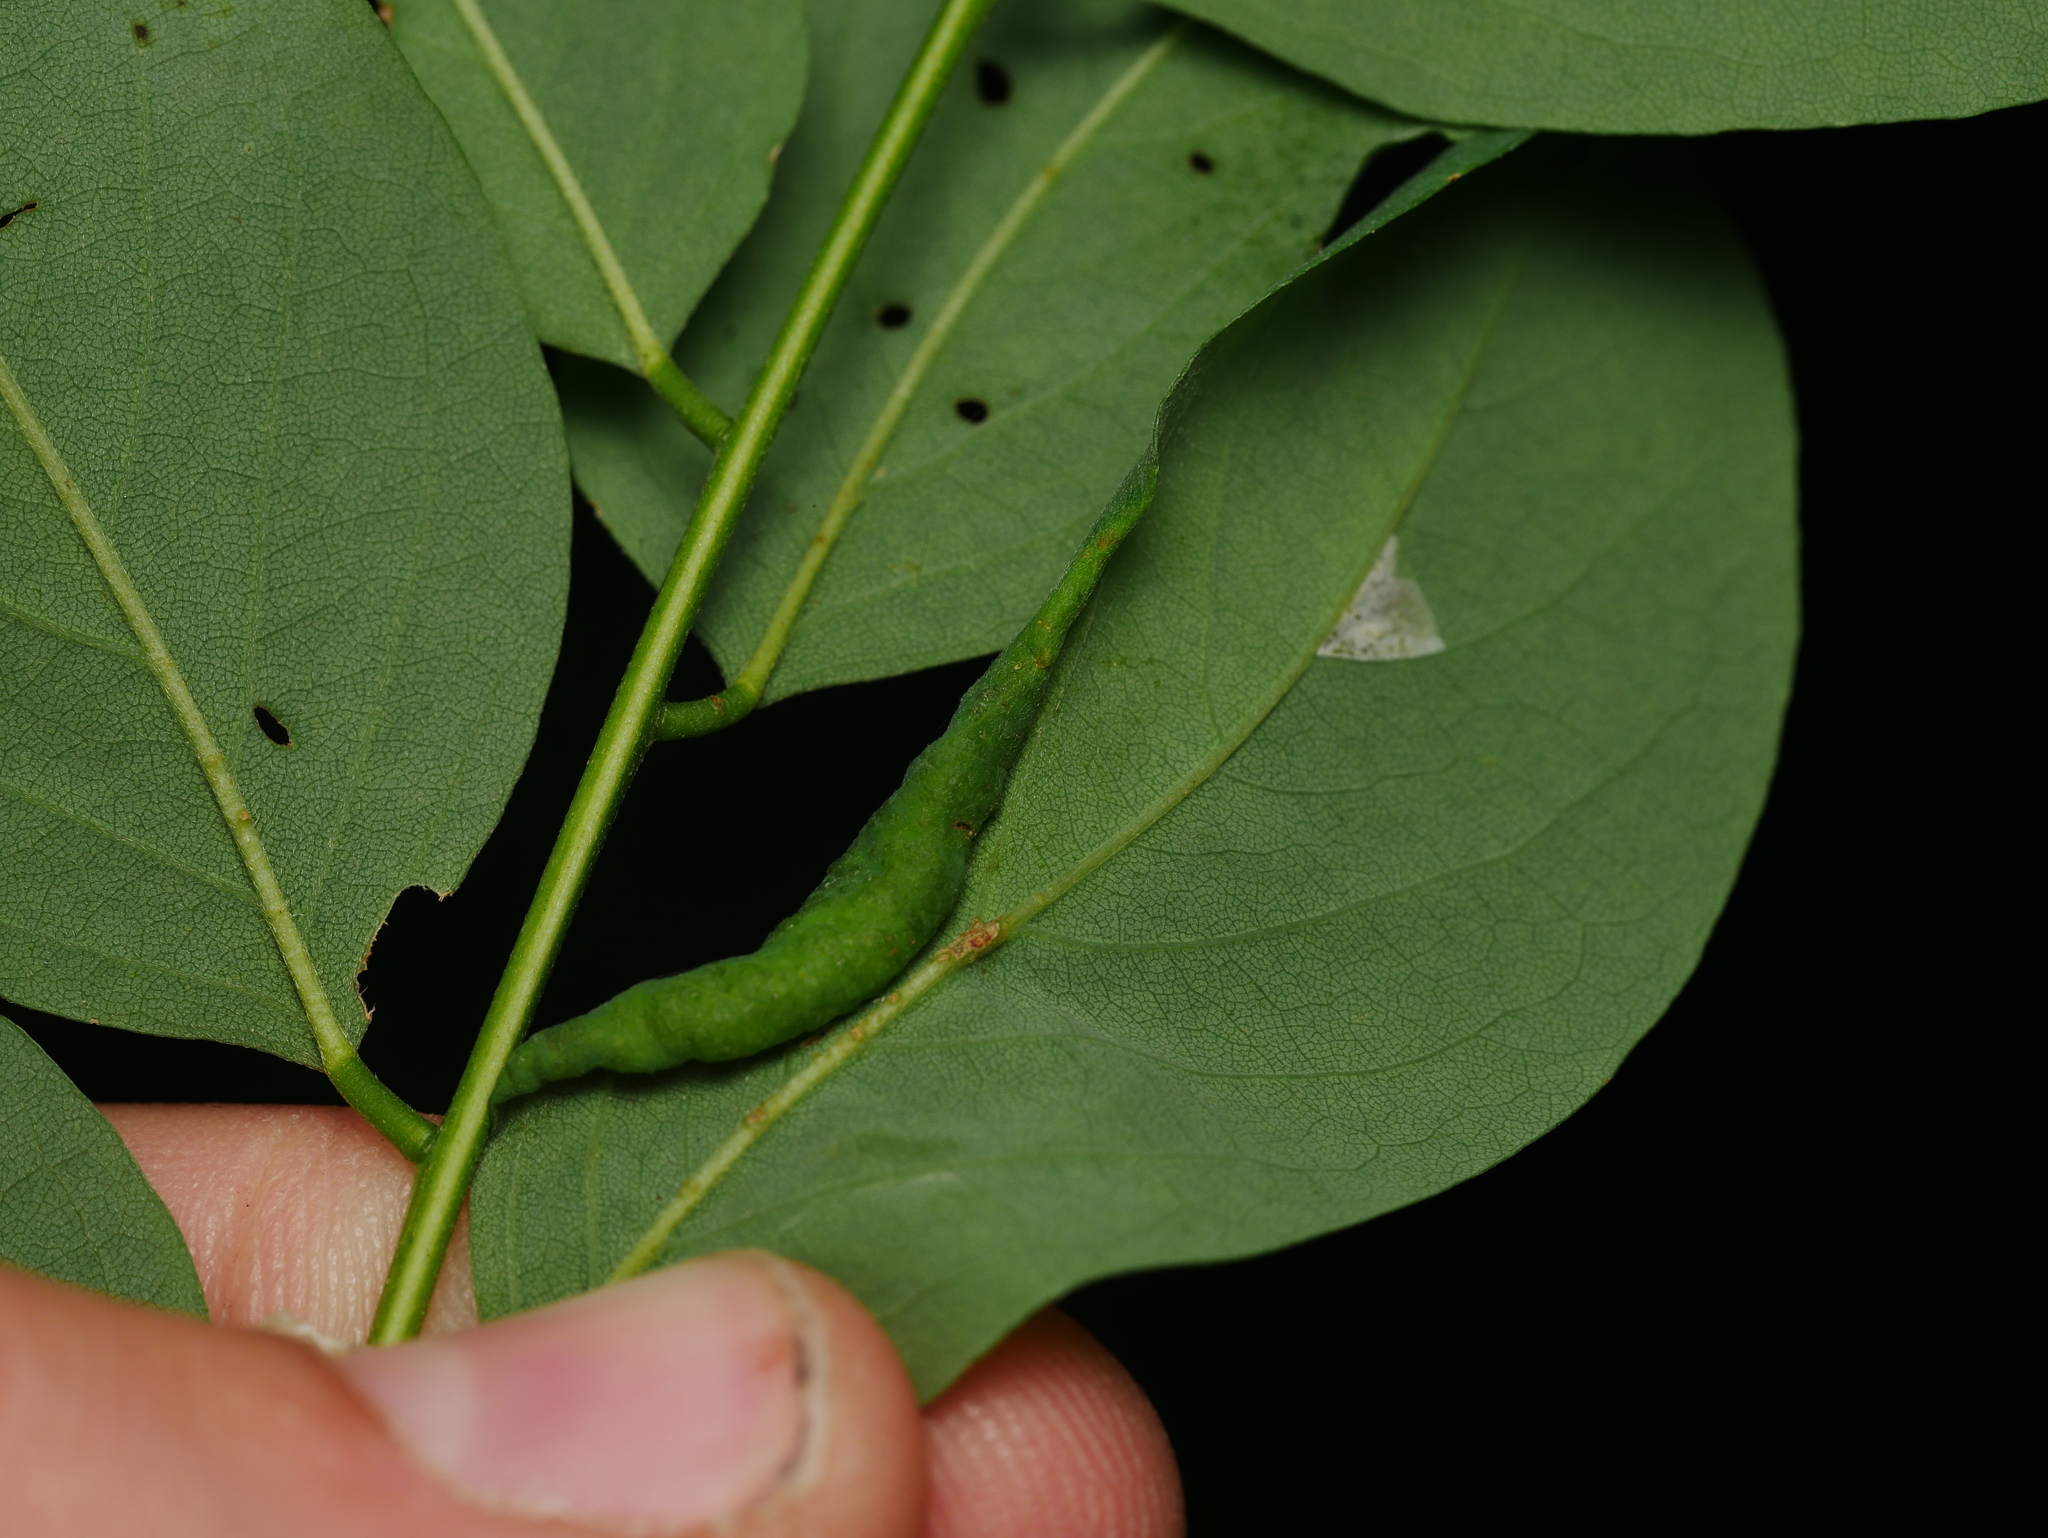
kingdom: Animalia
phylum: Arthropoda
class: Insecta
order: Diptera
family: Cecidomyiidae
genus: Obolodiplosis
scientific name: Obolodiplosis robiniae
